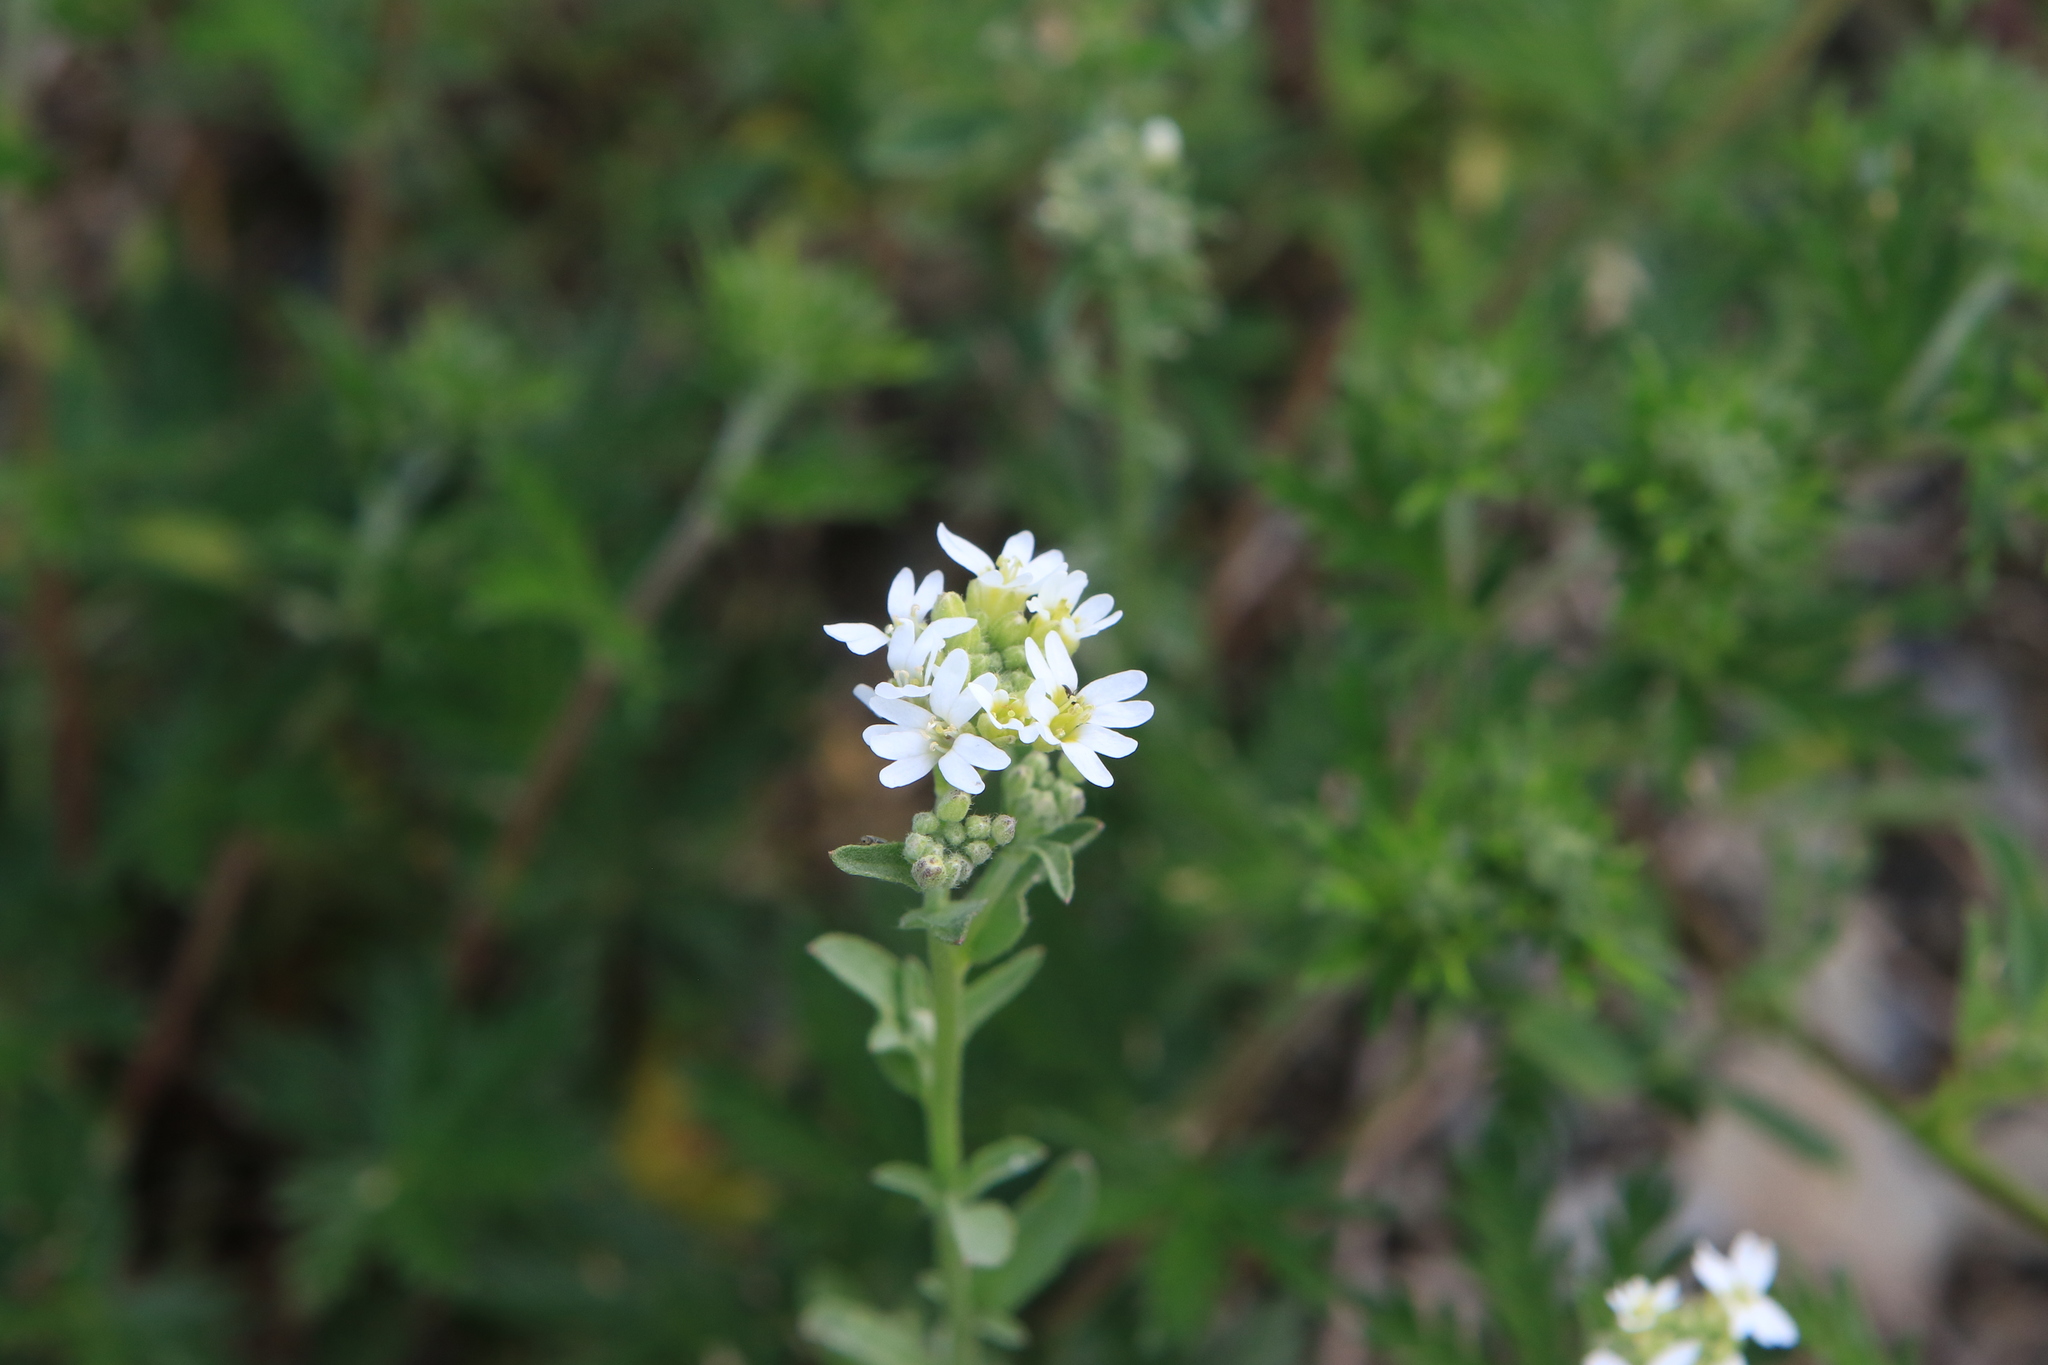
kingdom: Plantae
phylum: Tracheophyta
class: Magnoliopsida
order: Brassicales
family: Brassicaceae
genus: Berteroa
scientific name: Berteroa incana
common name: Hoary alison
